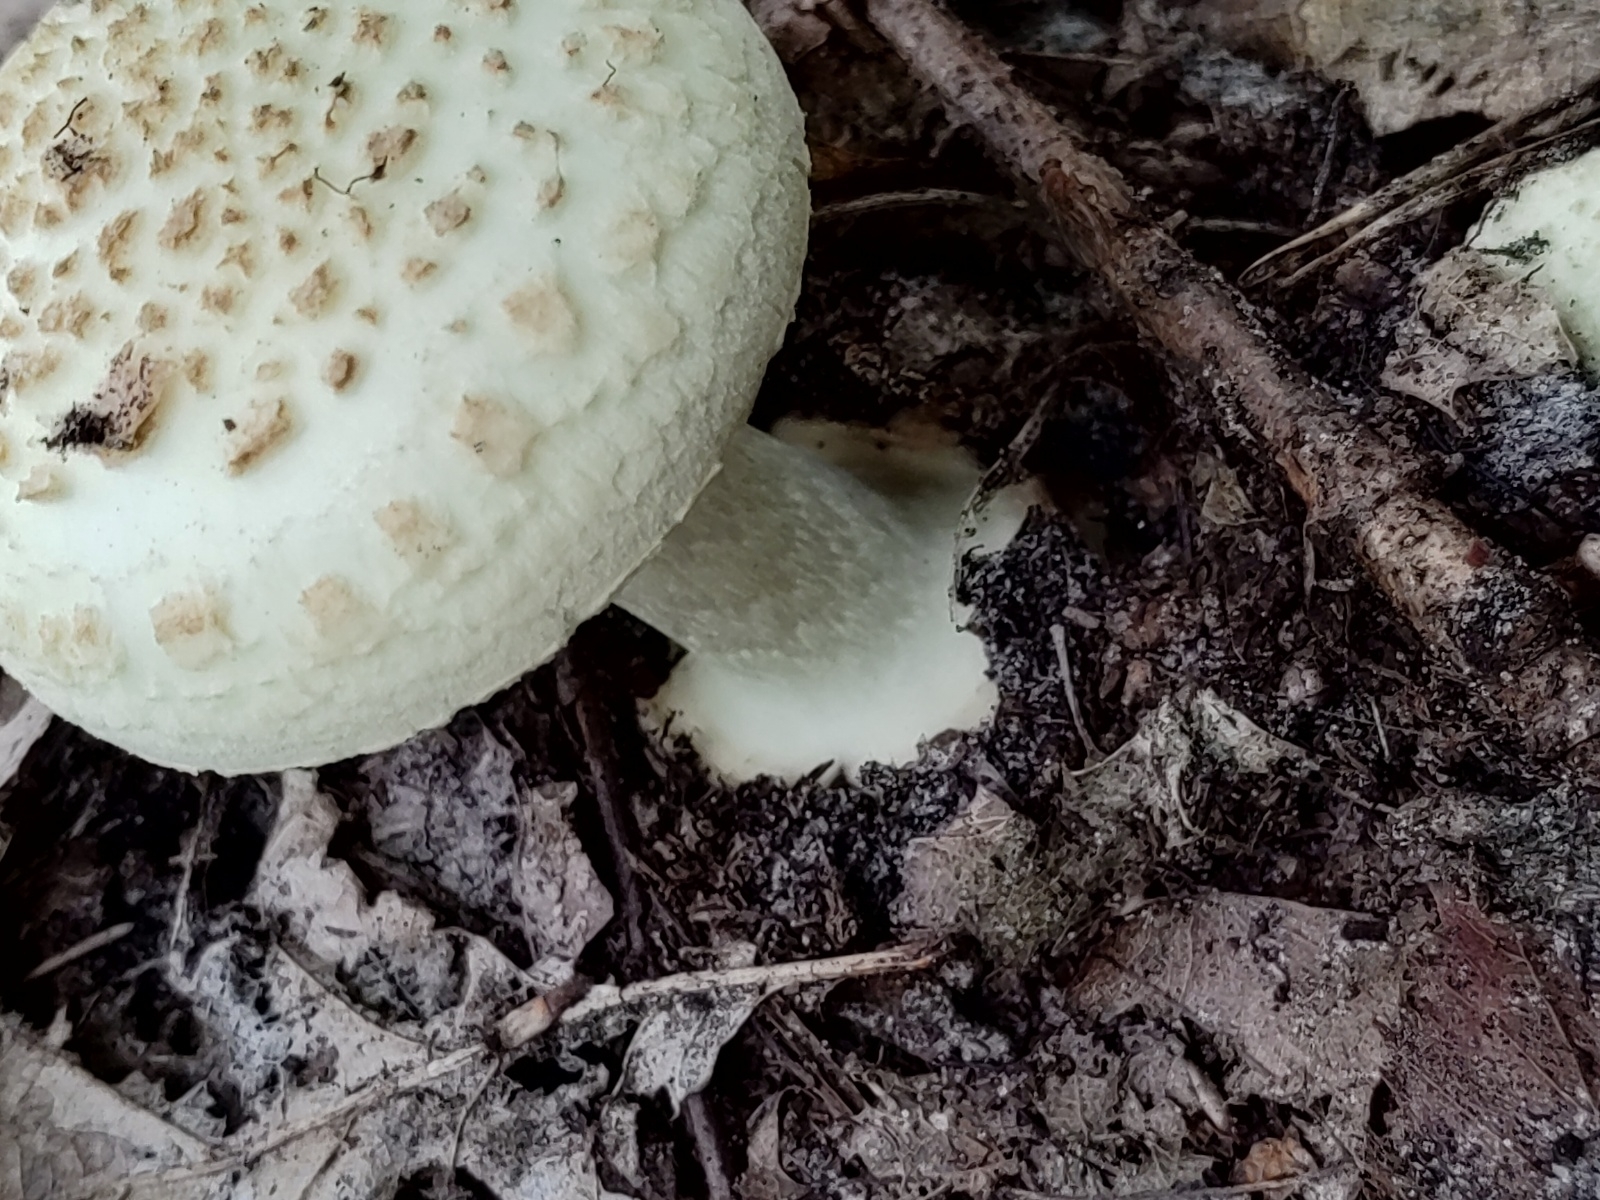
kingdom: Fungi
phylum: Basidiomycota
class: Agaricomycetes
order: Agaricales
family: Amanitaceae
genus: Amanita
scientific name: Amanita citrina
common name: False death-cap
